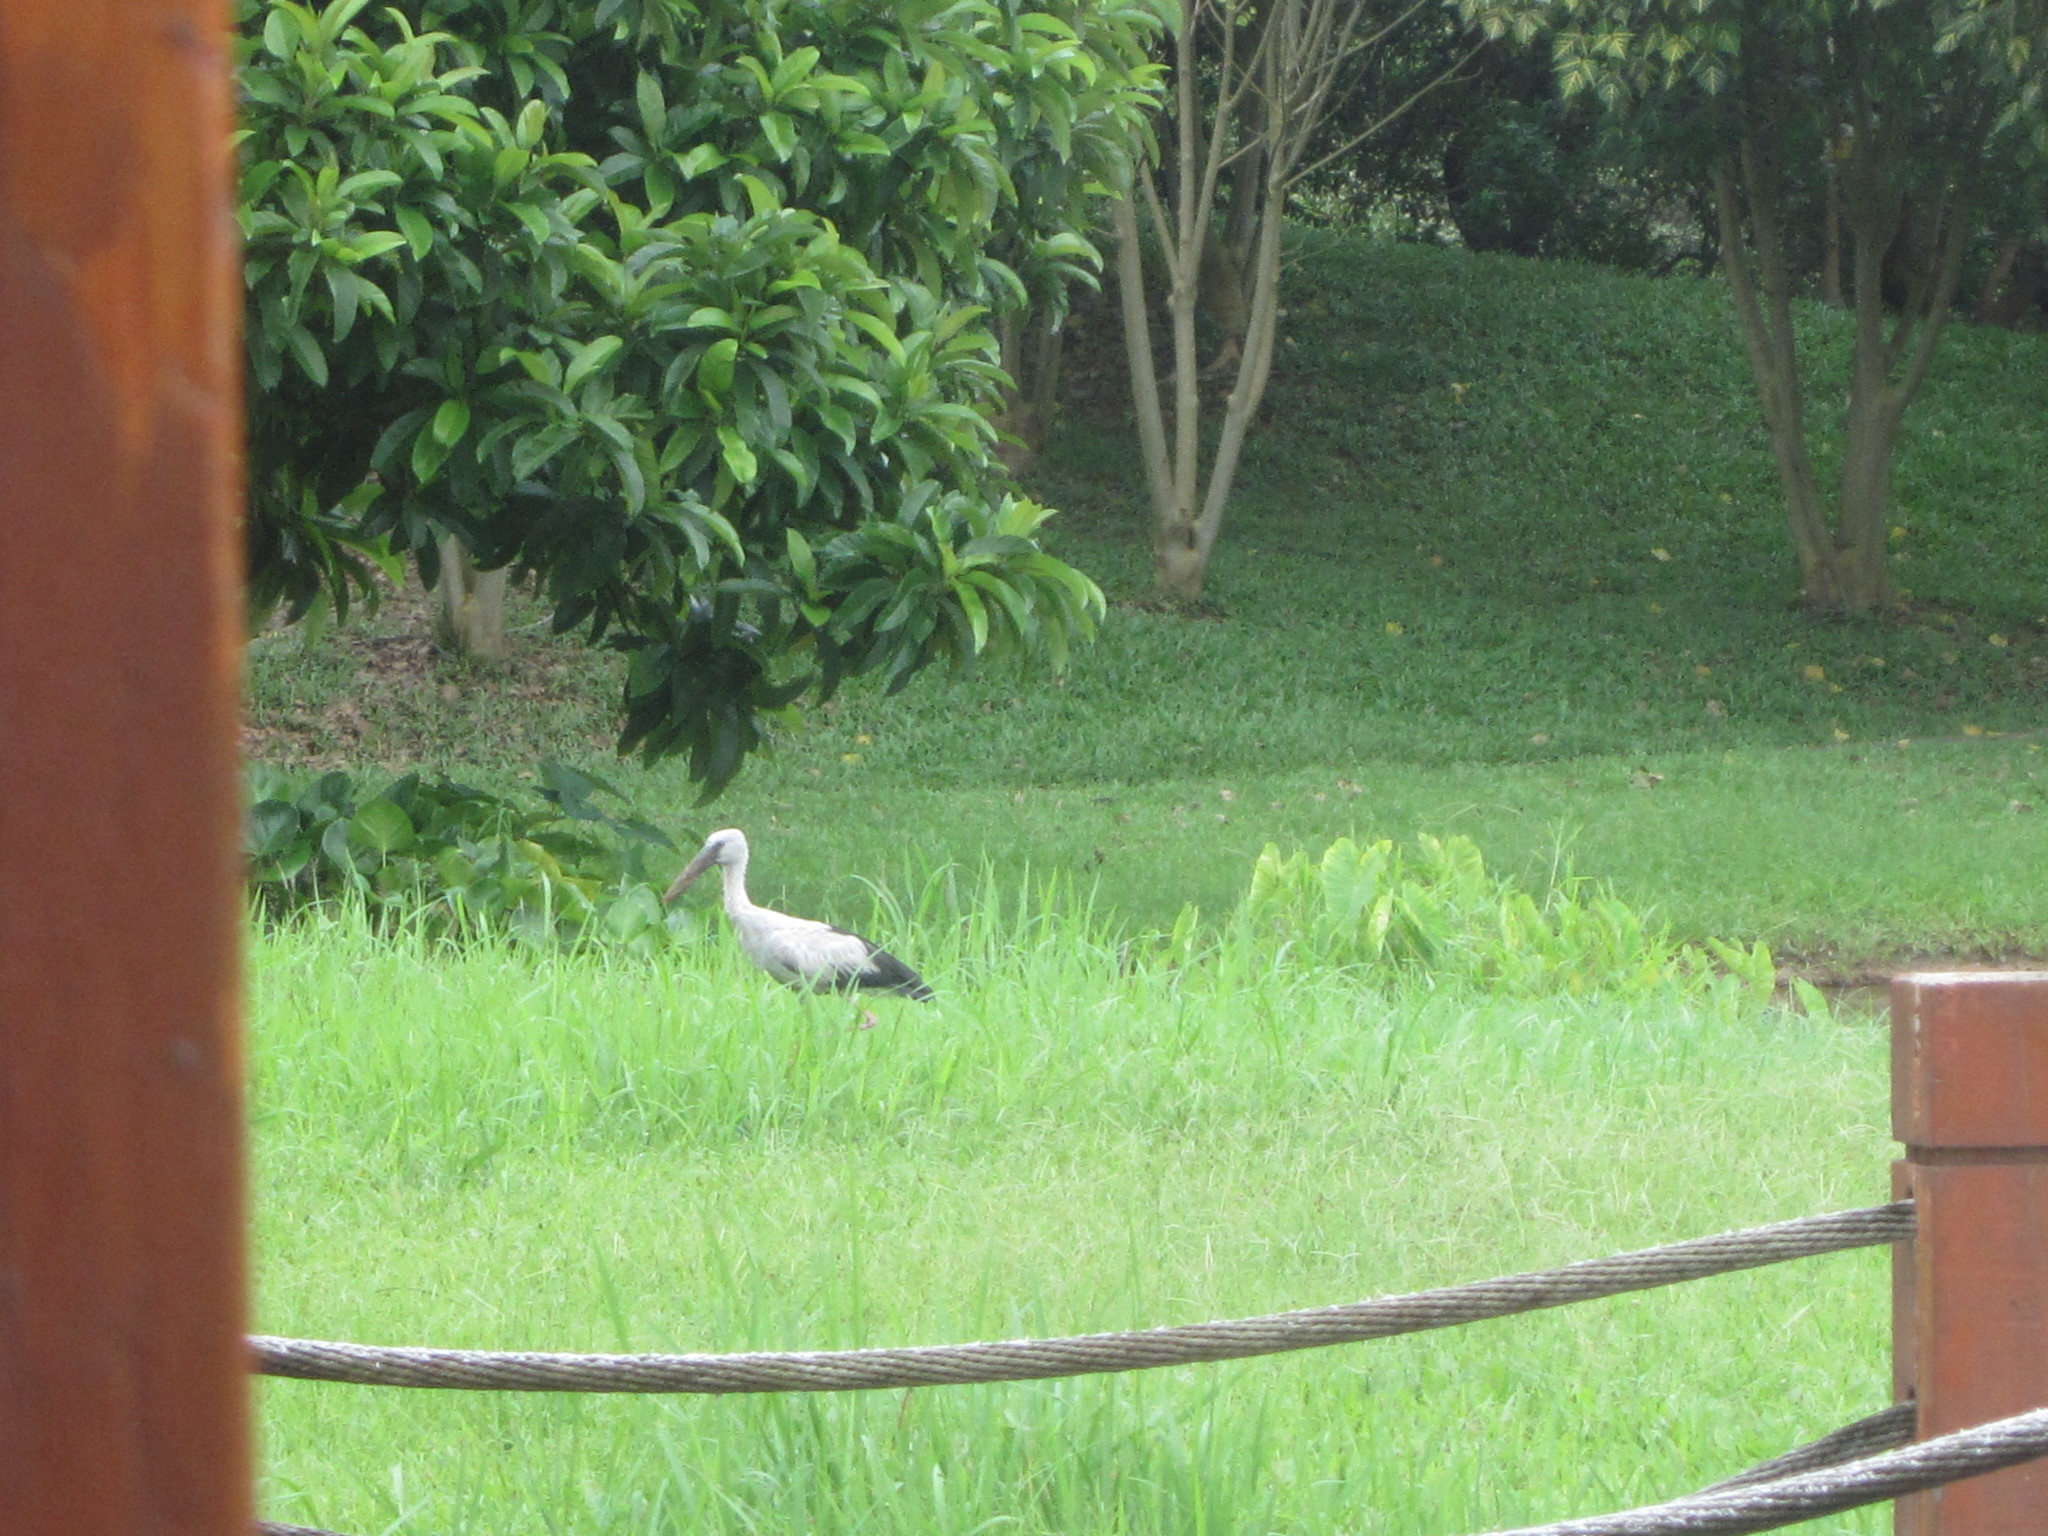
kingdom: Animalia
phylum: Chordata
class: Aves
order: Ciconiiformes
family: Ciconiidae
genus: Anastomus
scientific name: Anastomus oscitans
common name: Asian openbill
